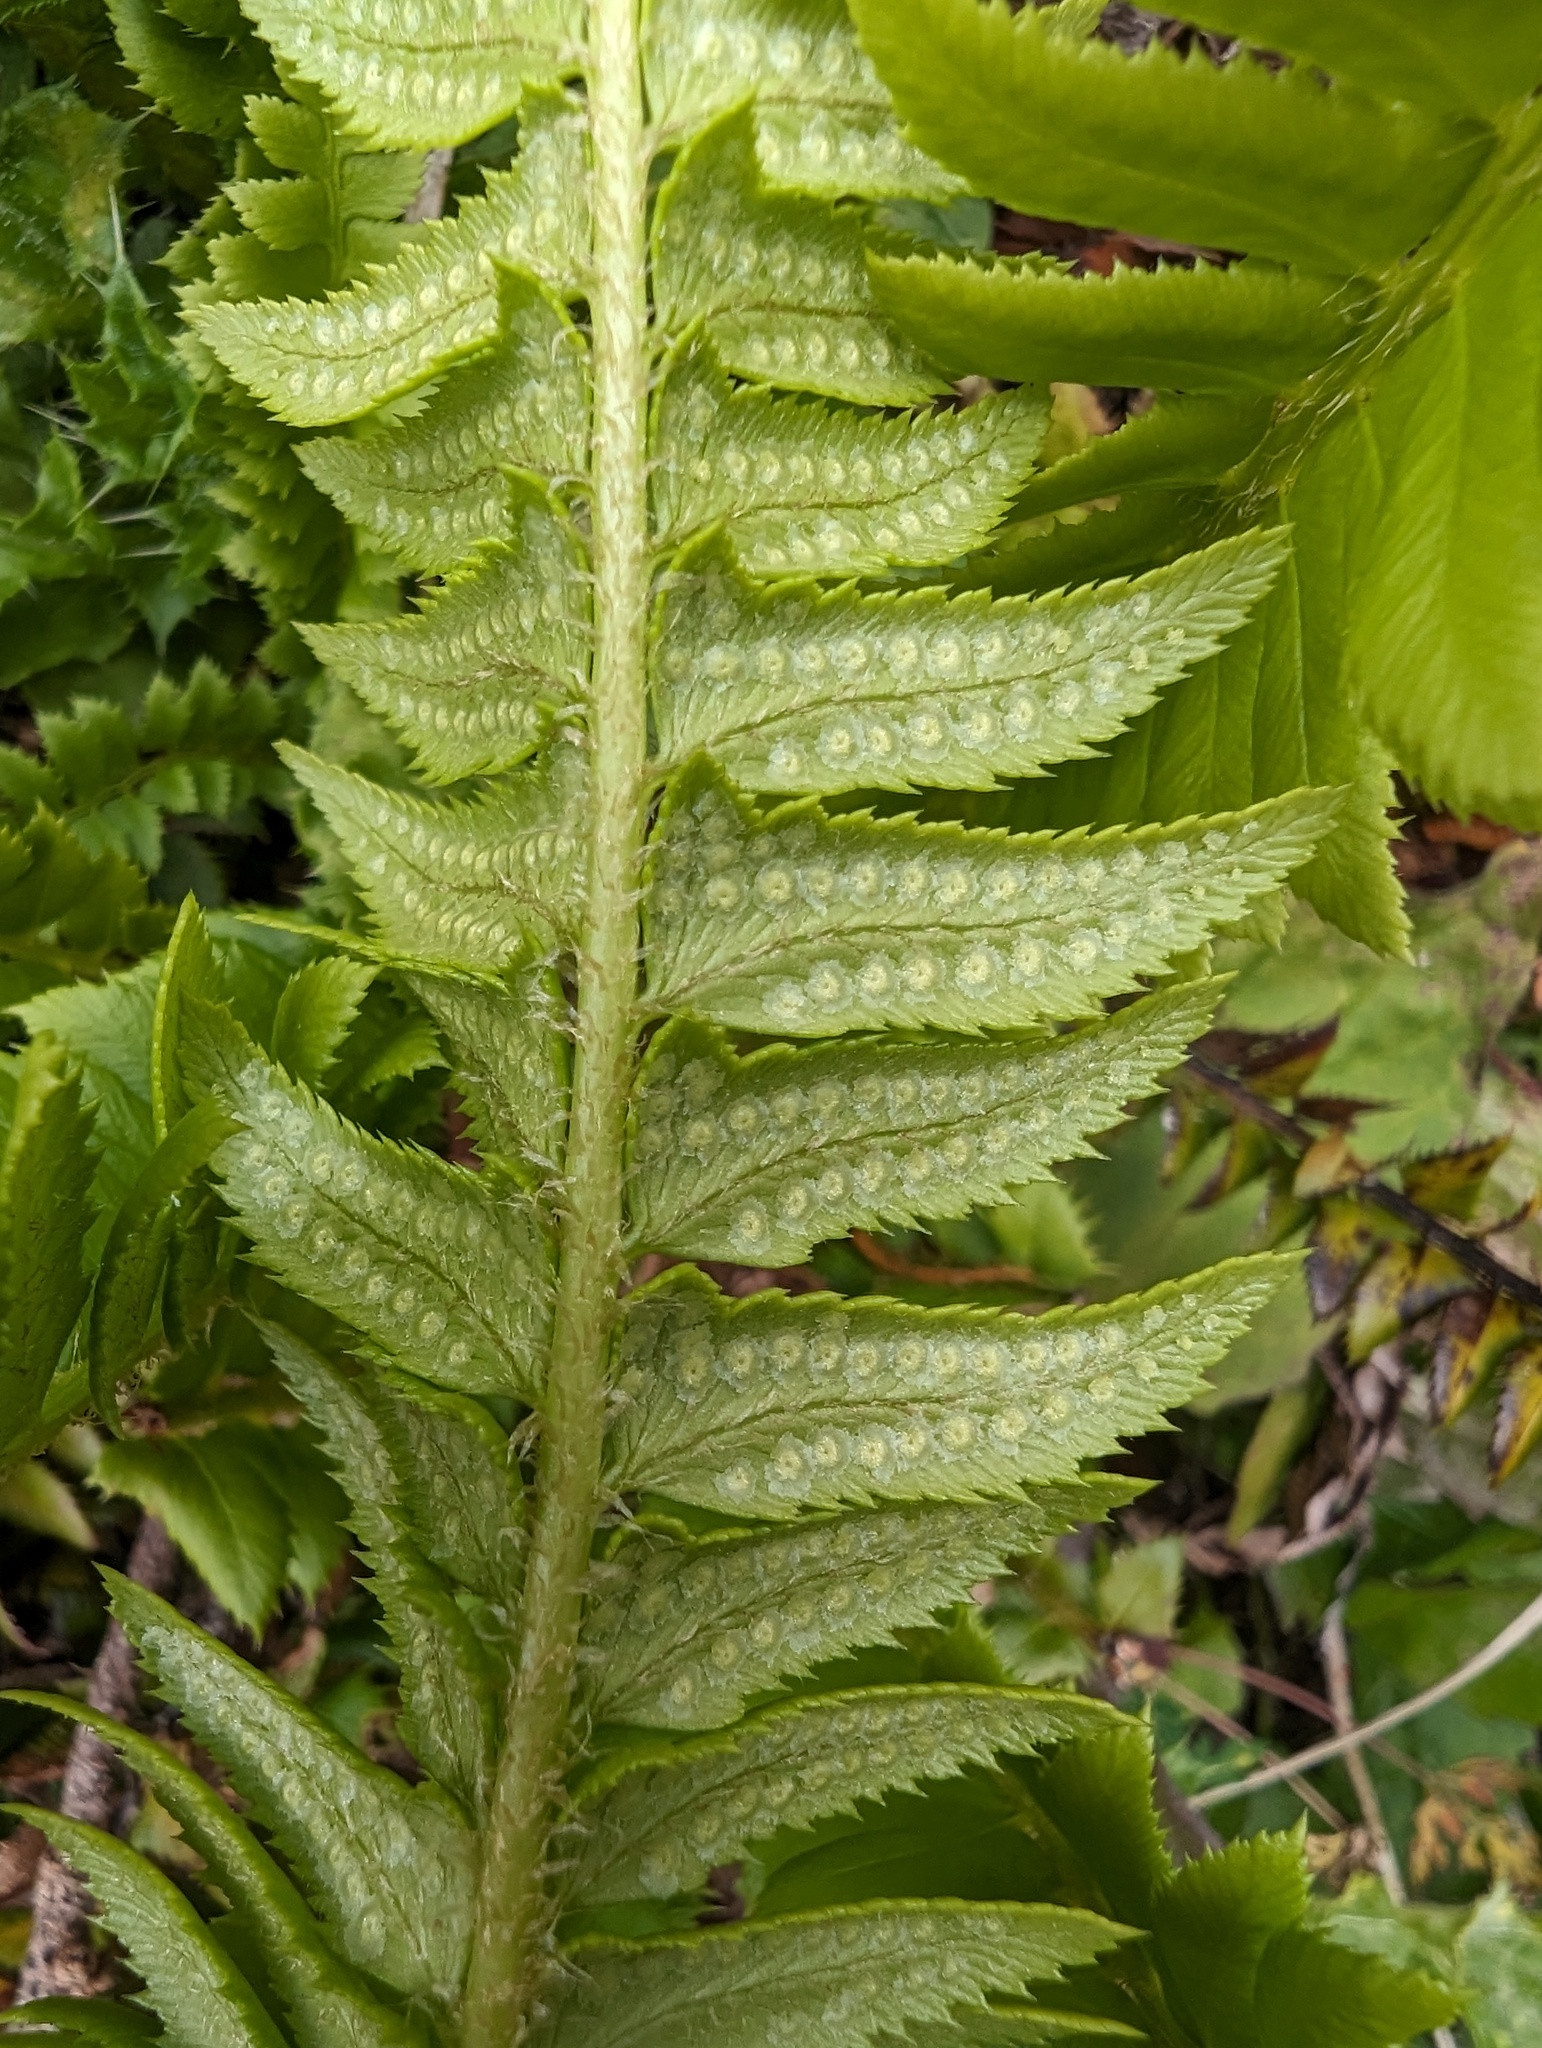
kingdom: Plantae
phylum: Tracheophyta
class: Polypodiopsida
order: Polypodiales
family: Dryopteridaceae
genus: Polystichum
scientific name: Polystichum lonchitis
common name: Holly fern
